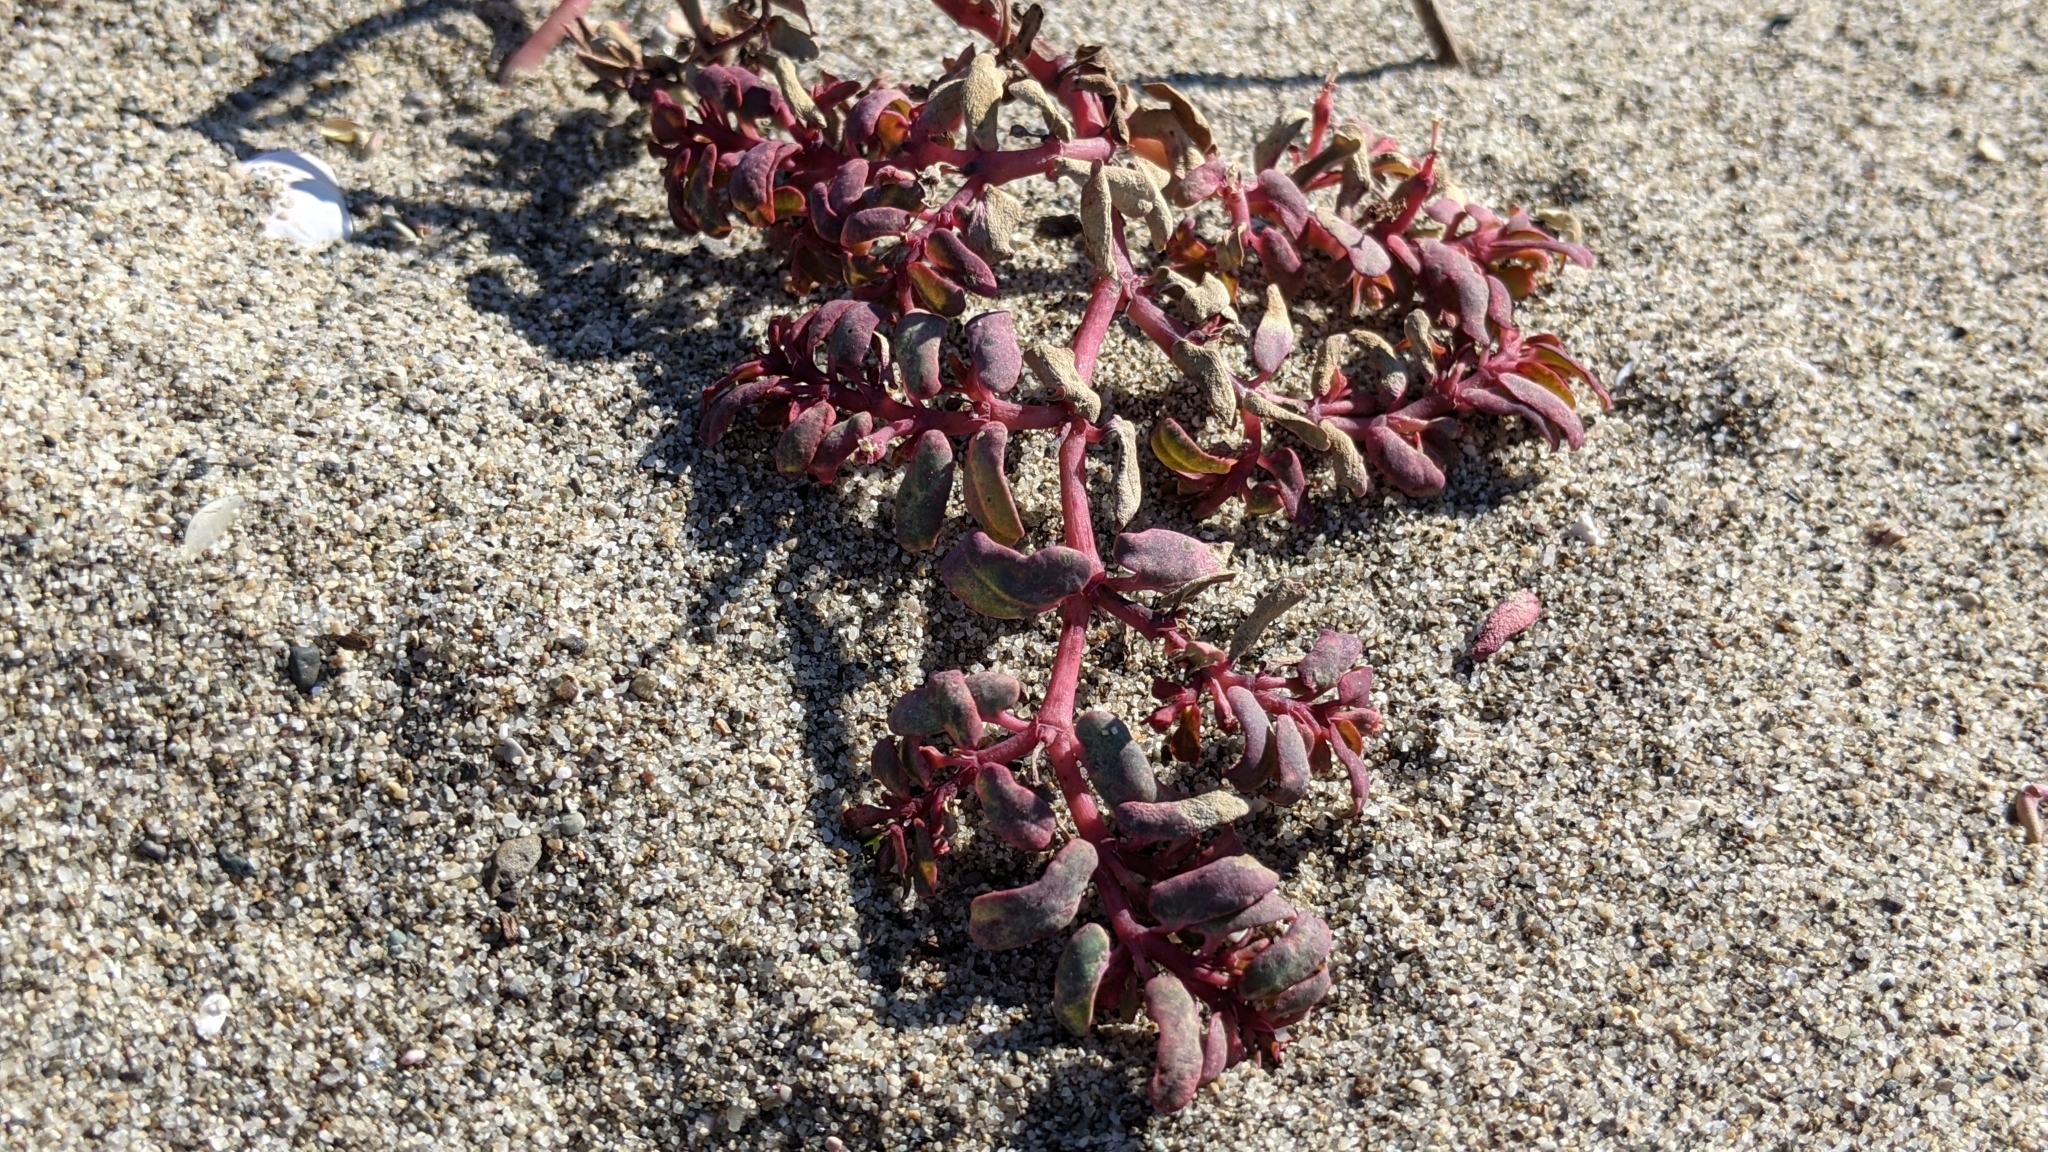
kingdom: Plantae
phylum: Tracheophyta
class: Magnoliopsida
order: Malpighiales
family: Euphorbiaceae
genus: Euphorbia
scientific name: Euphorbia peplis
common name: Purple spurge
